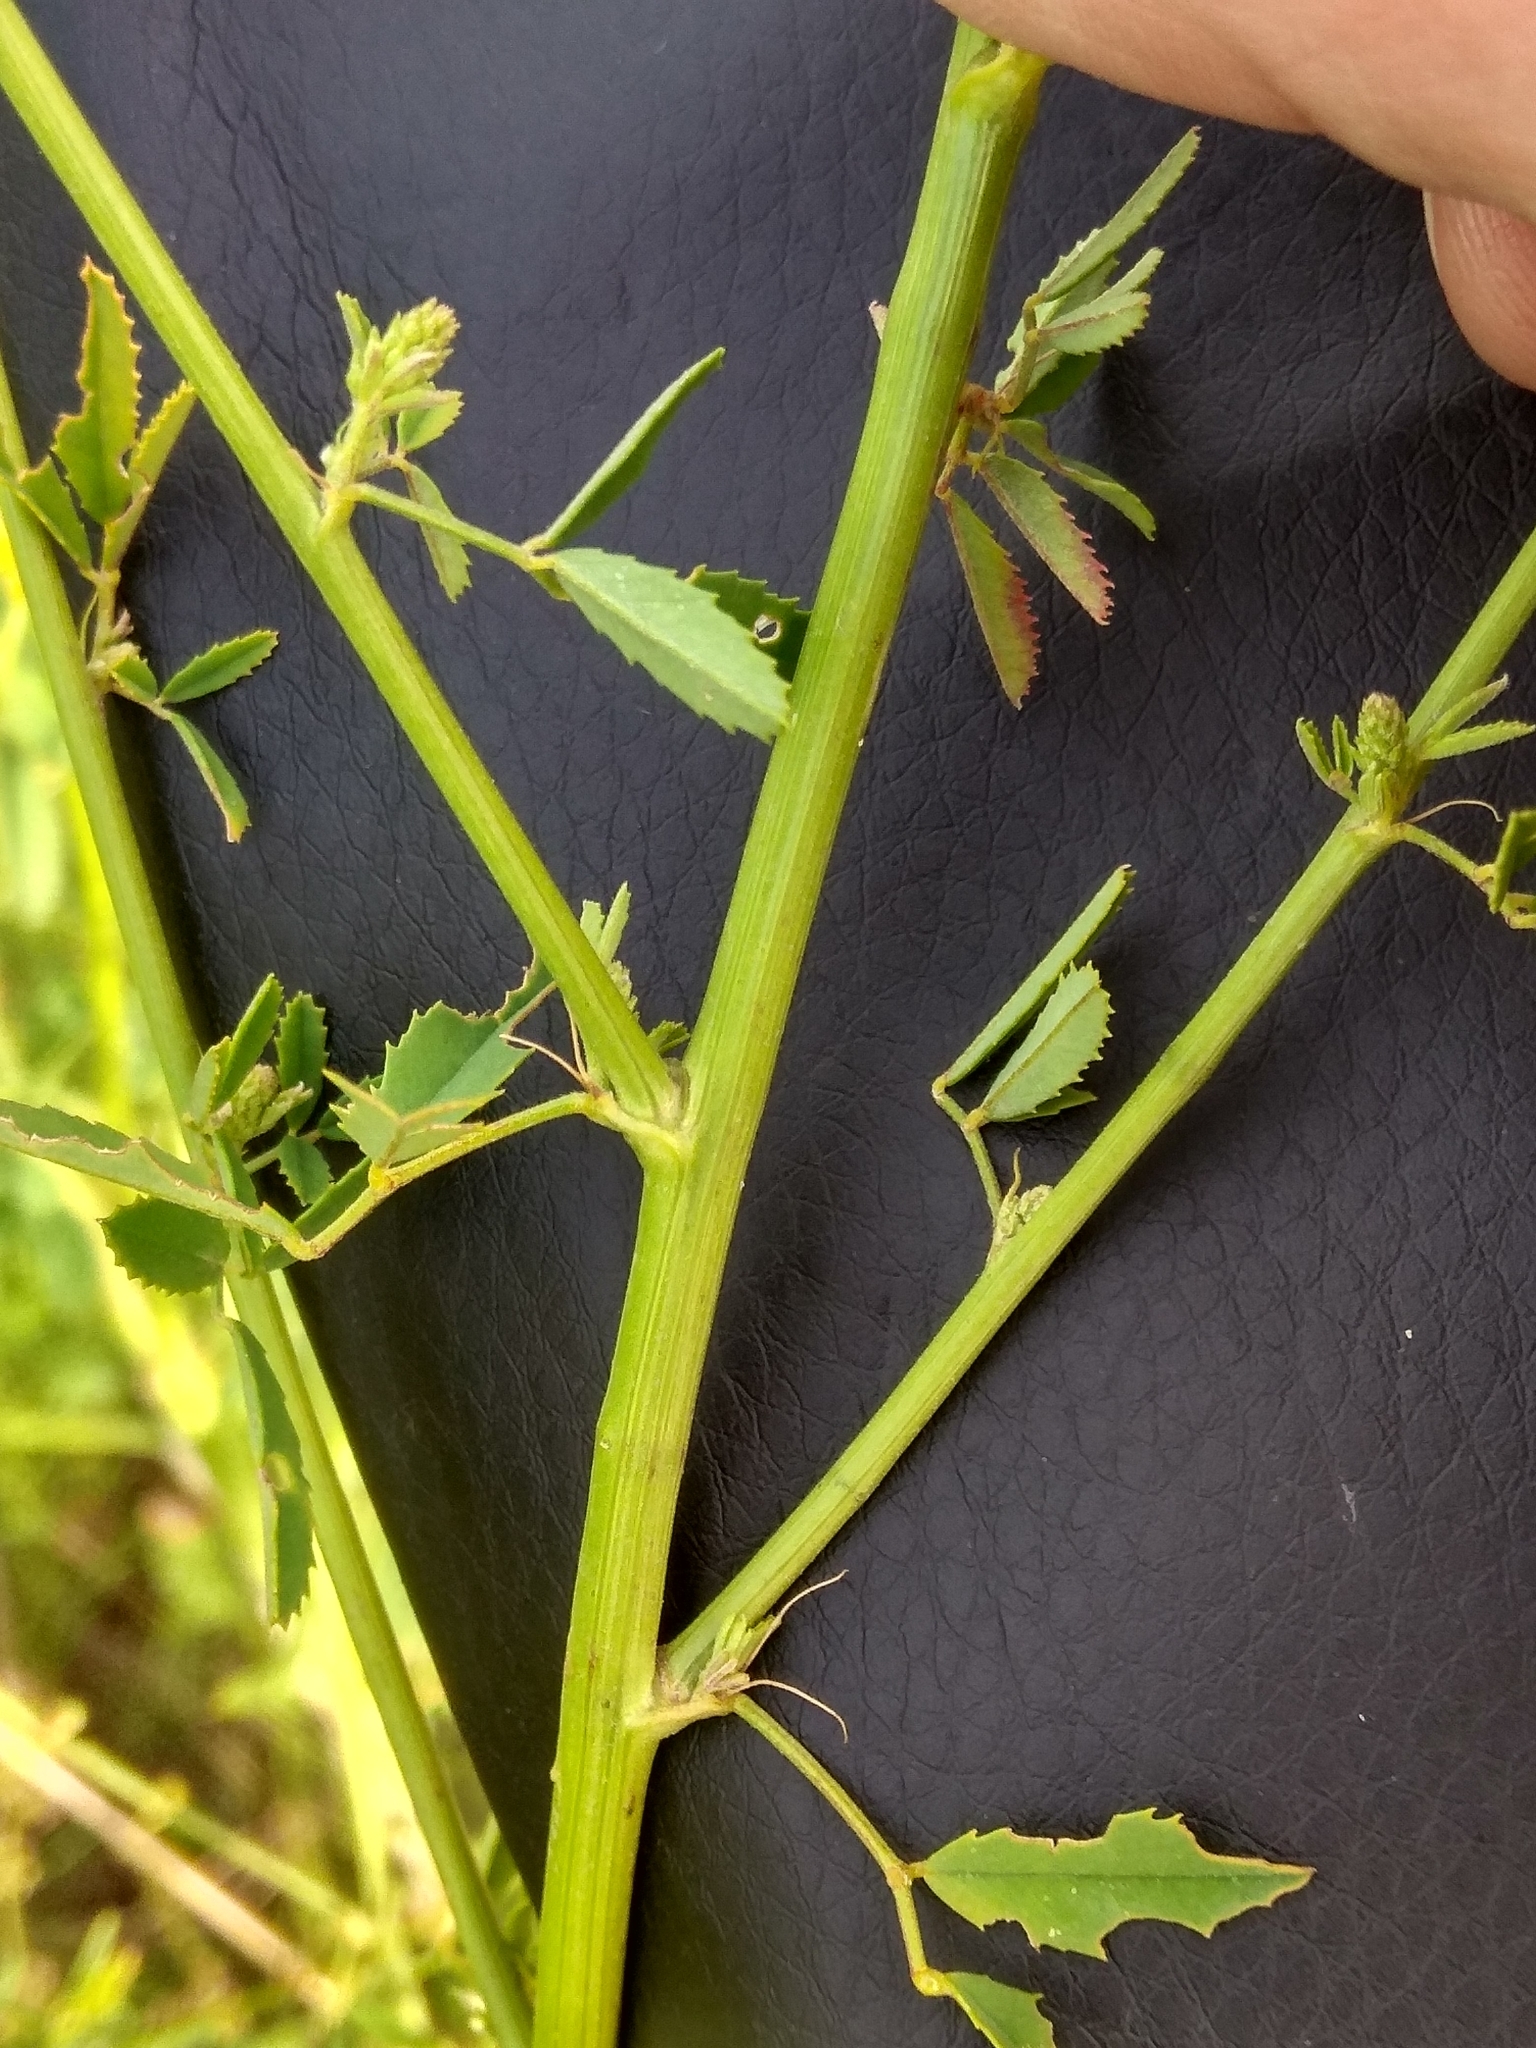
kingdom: Plantae
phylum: Tracheophyta
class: Magnoliopsida
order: Fabales
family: Fabaceae
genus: Melilotus
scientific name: Melilotus officinalis
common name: Sweetclover
